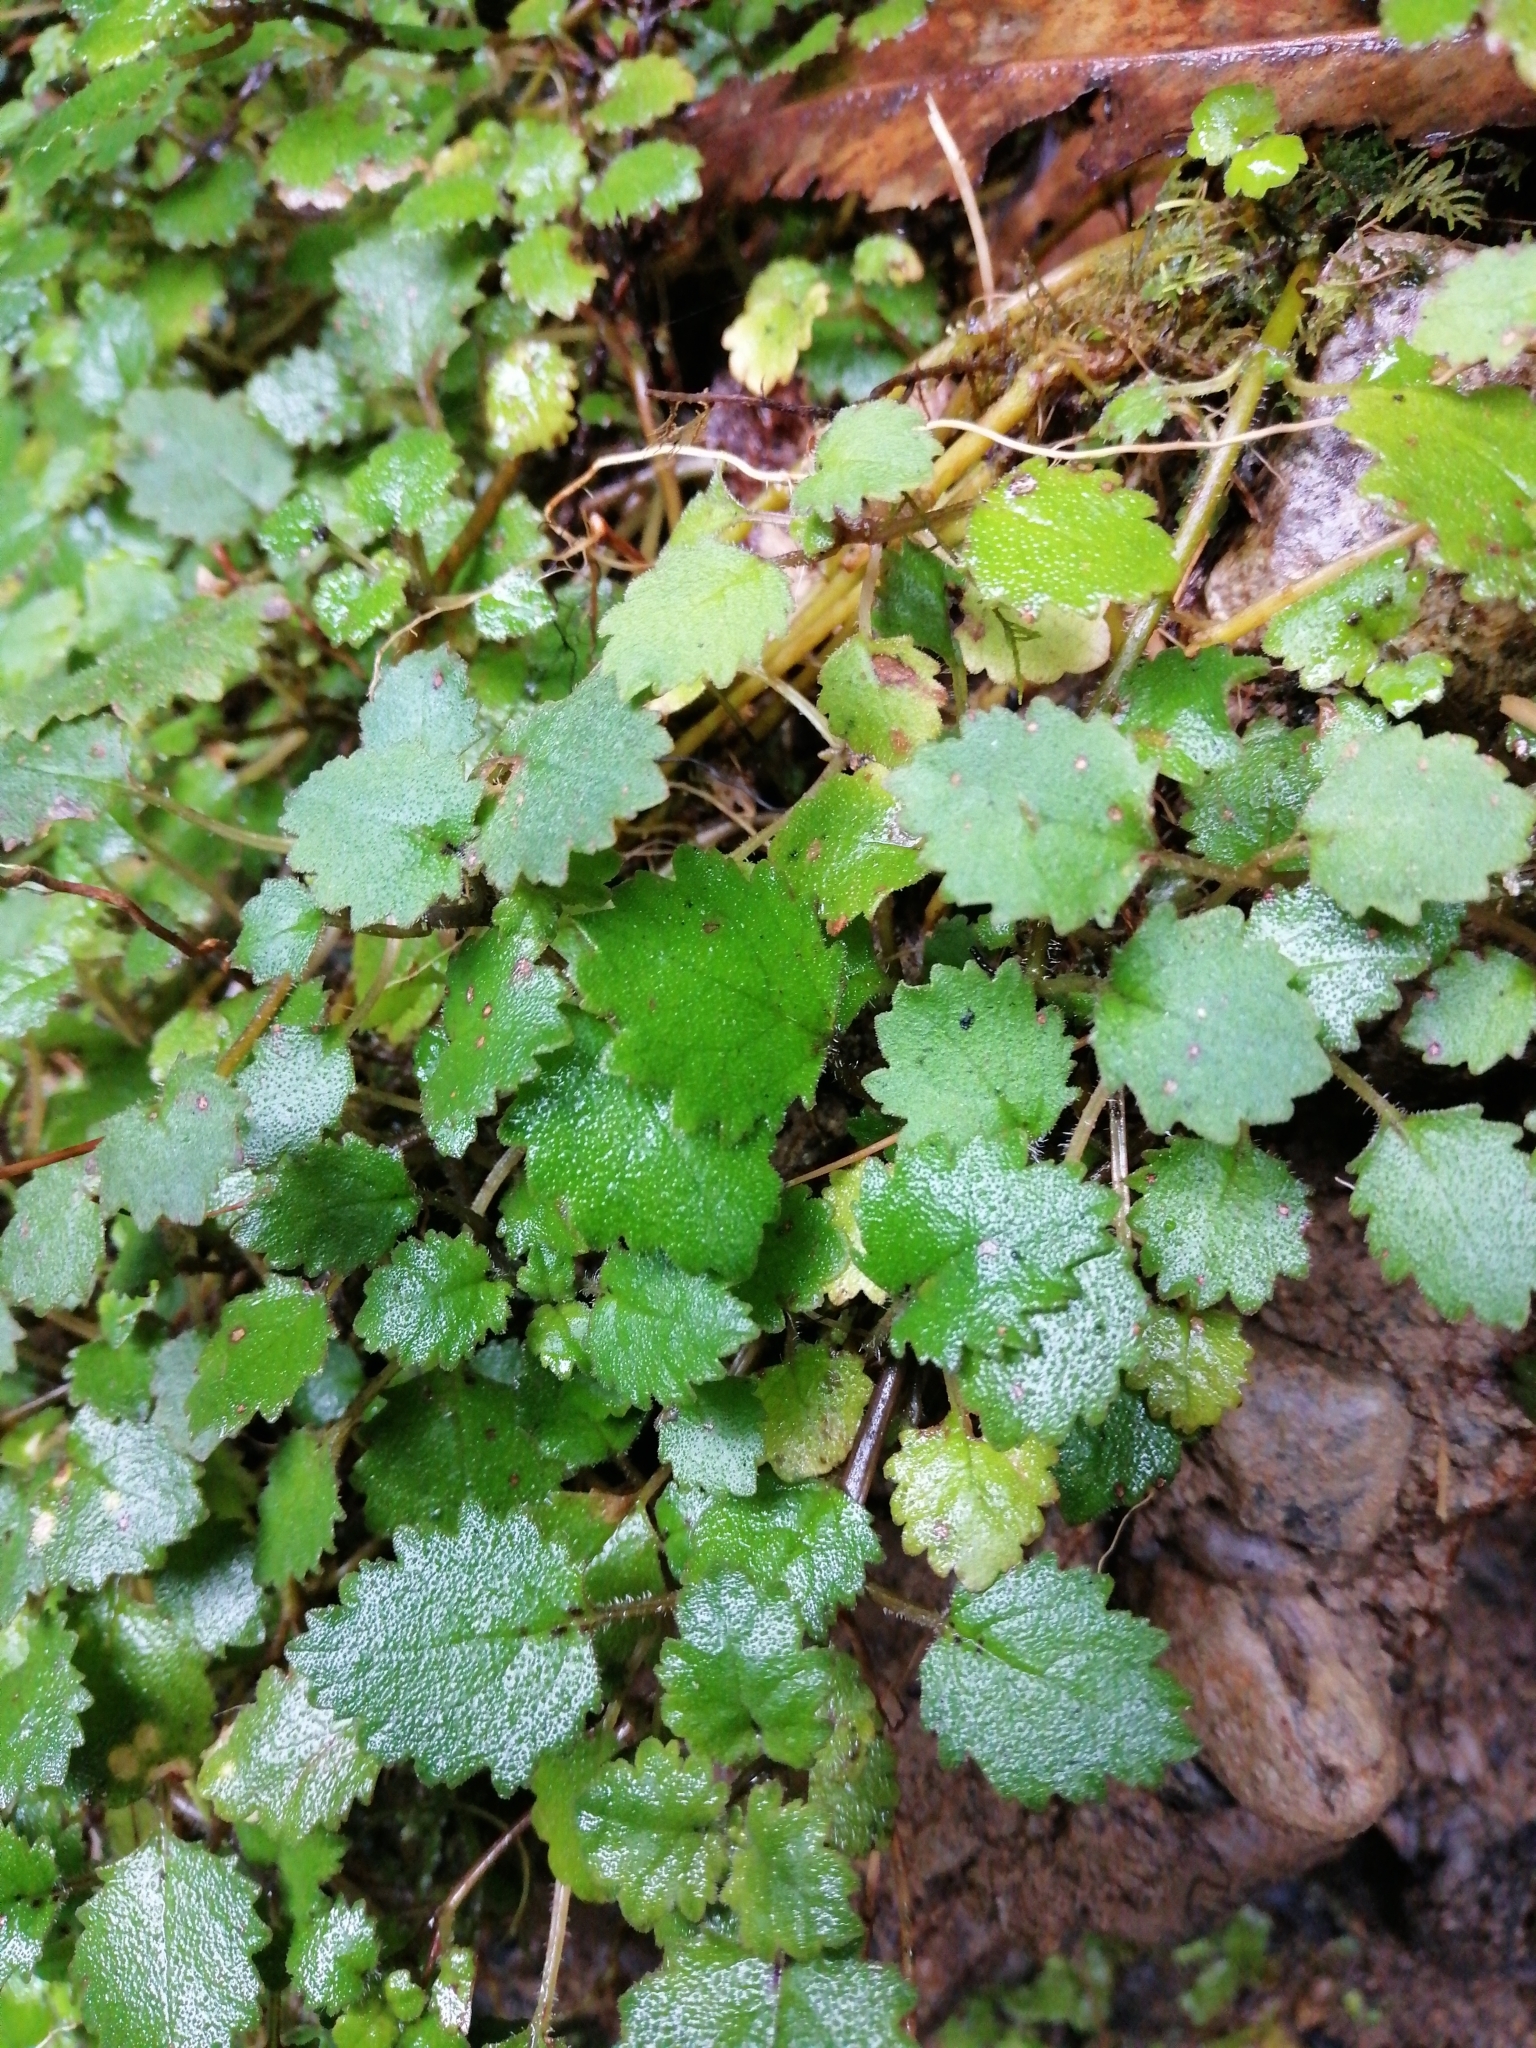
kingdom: Plantae
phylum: Tracheophyta
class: Magnoliopsida
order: Lamiales
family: Calceolariaceae
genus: Jovellana
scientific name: Jovellana repens
